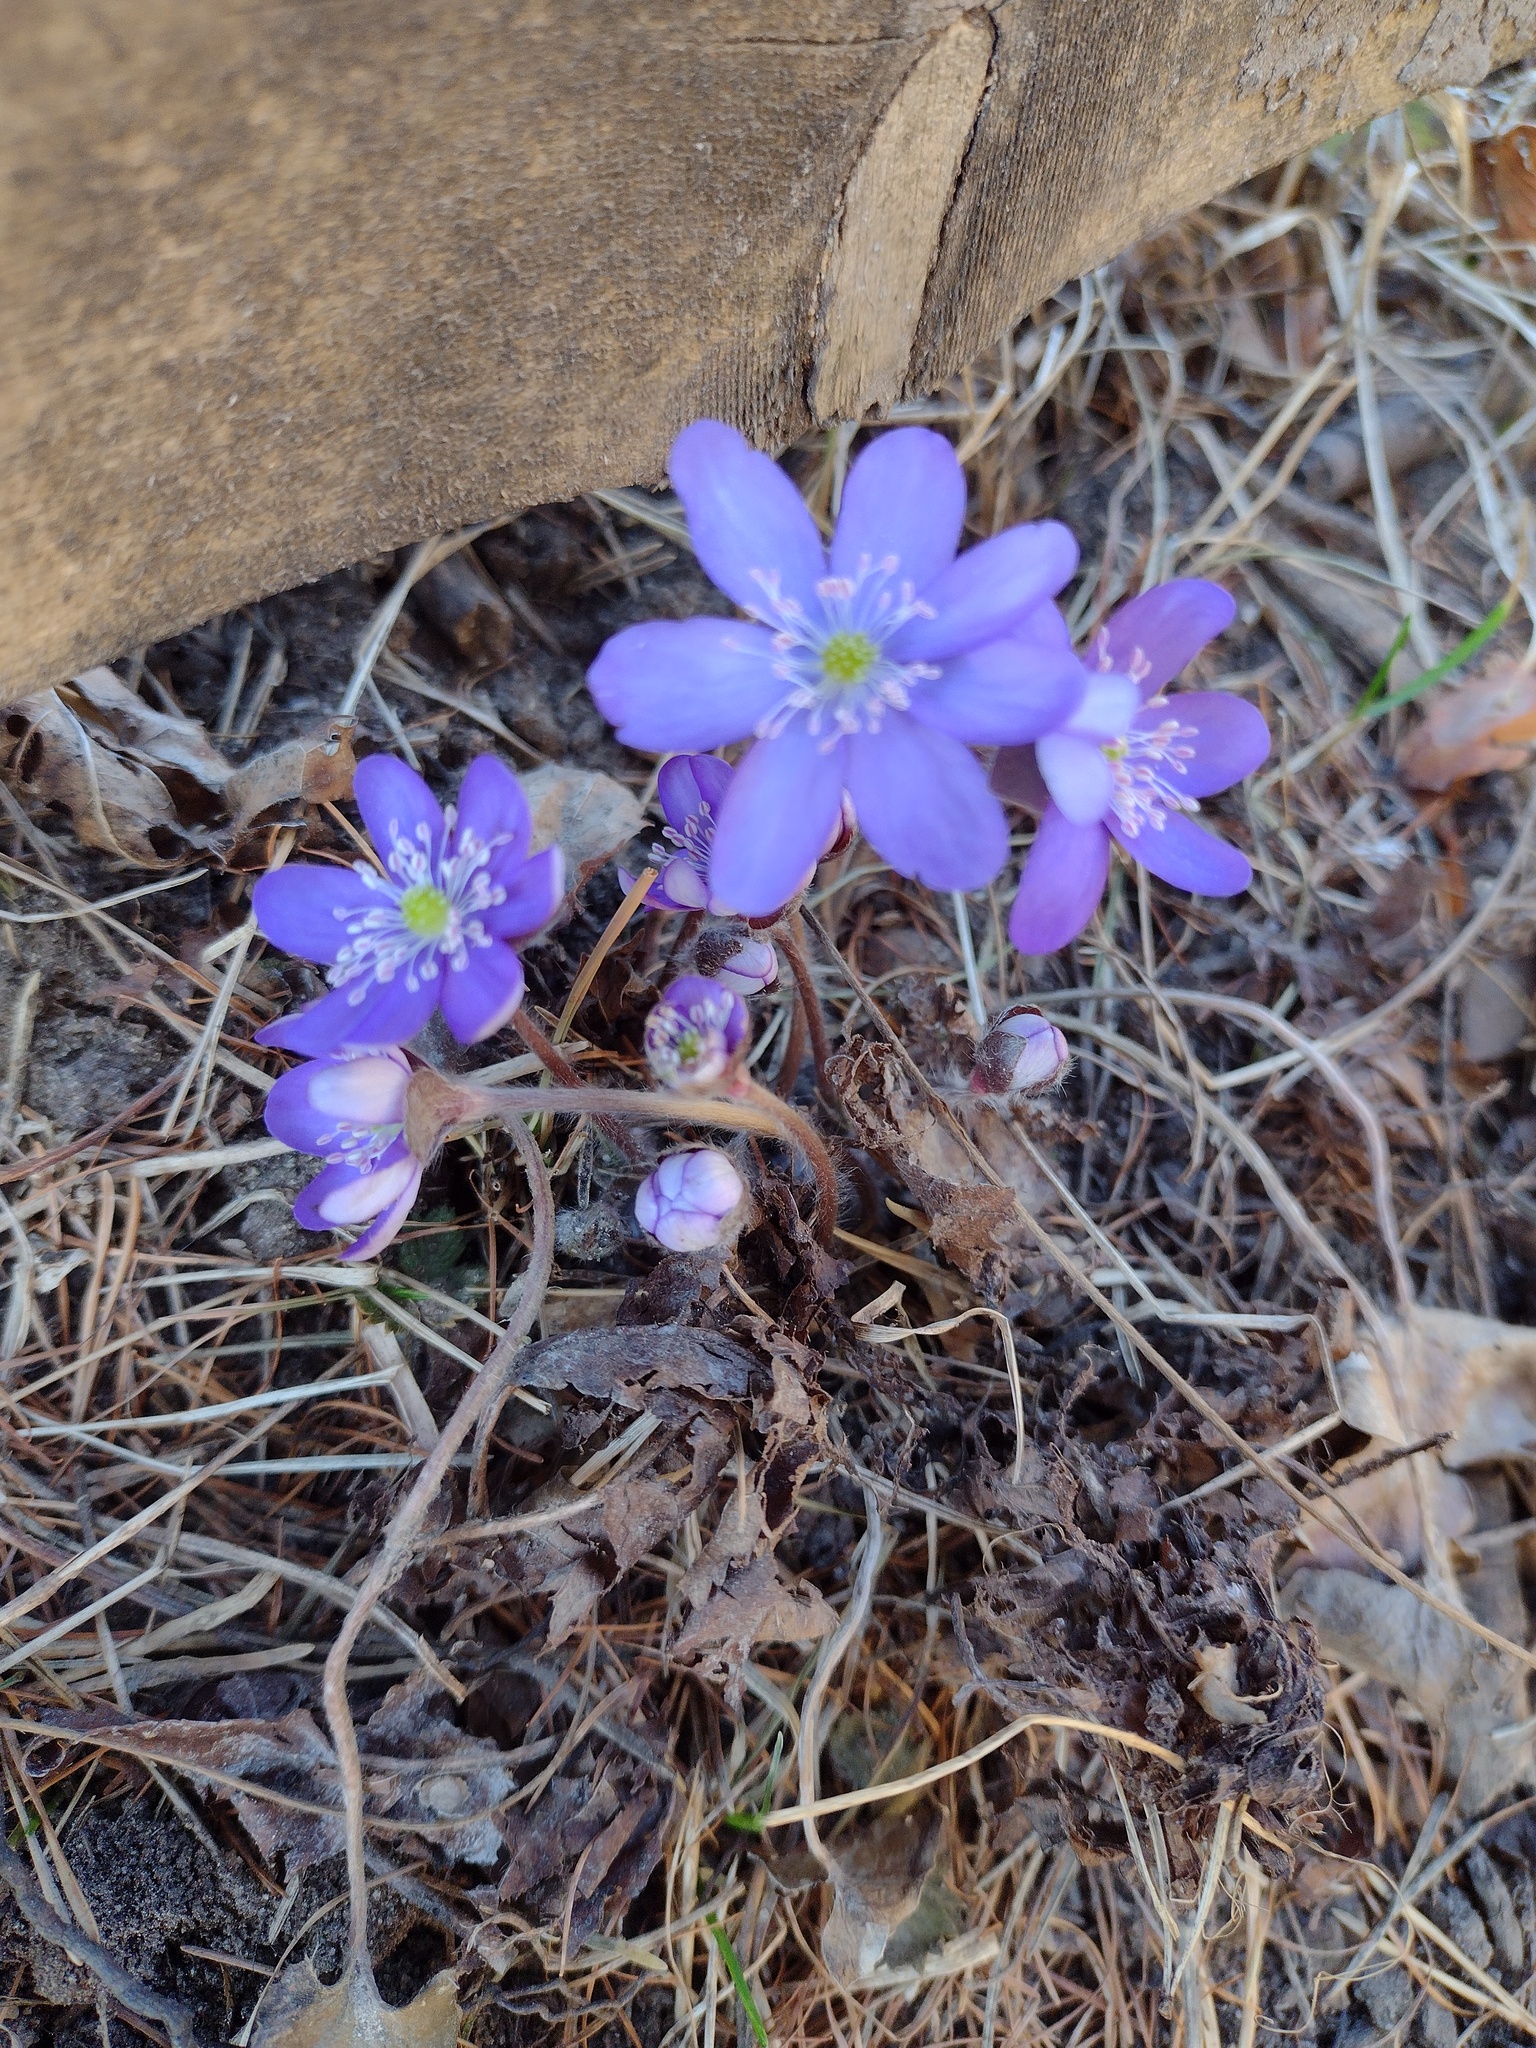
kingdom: Plantae
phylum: Tracheophyta
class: Magnoliopsida
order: Ranunculales
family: Ranunculaceae
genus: Hepatica
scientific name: Hepatica nobilis
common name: Liverleaf
